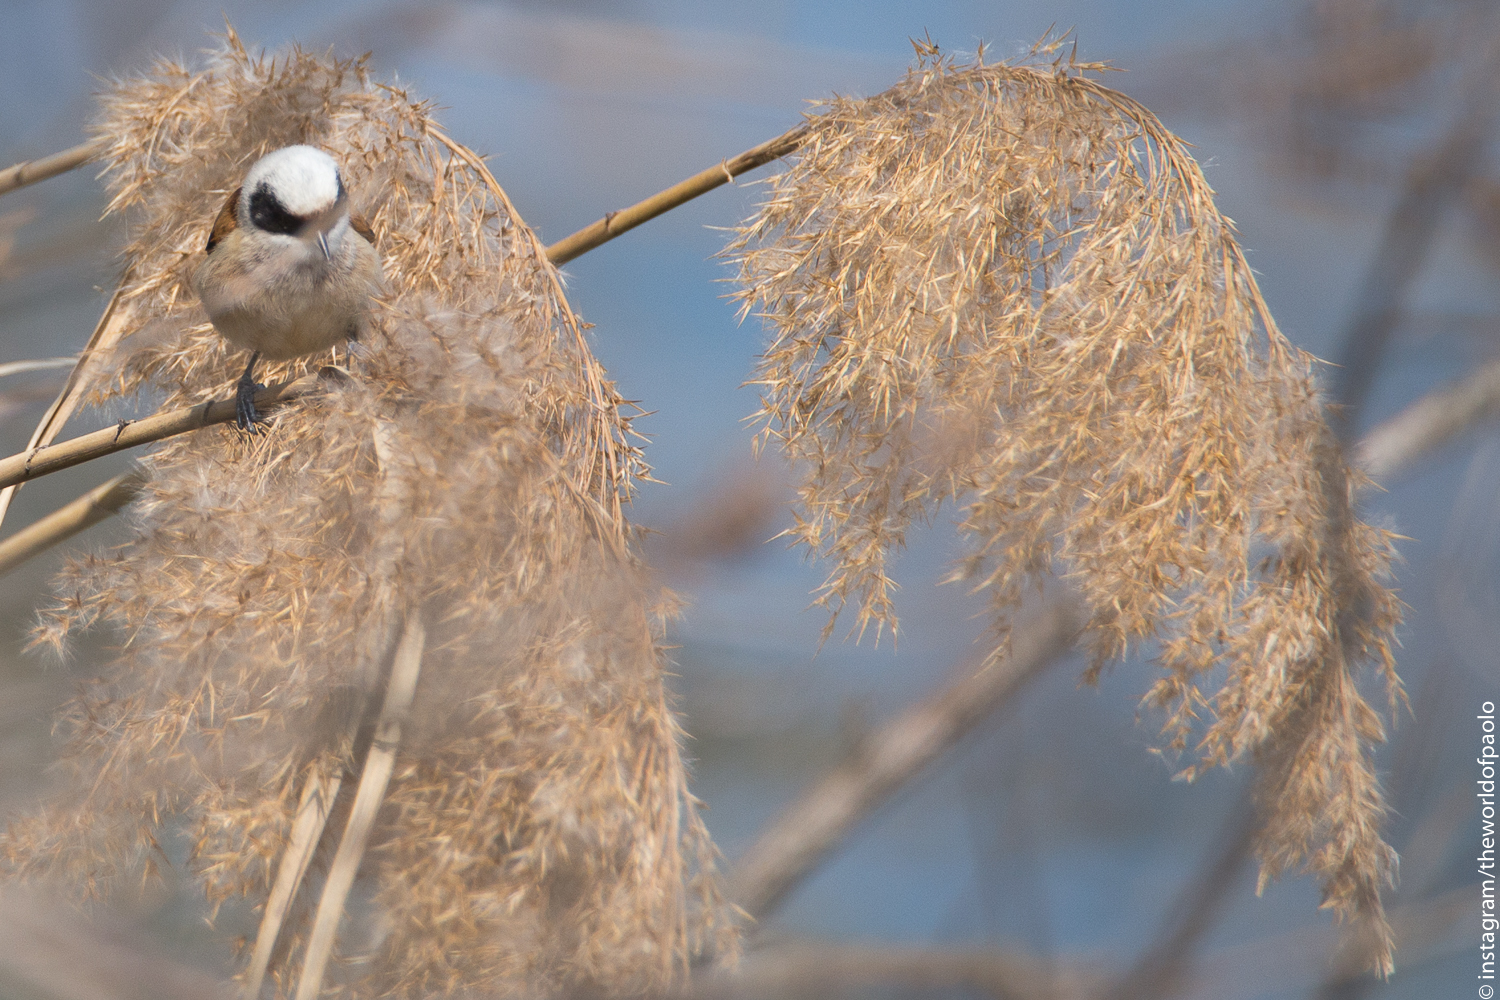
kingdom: Animalia
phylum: Chordata
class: Aves
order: Passeriformes
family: Remizidae
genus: Remiz
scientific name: Remiz pendulinus
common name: Eurasian penduline tit
